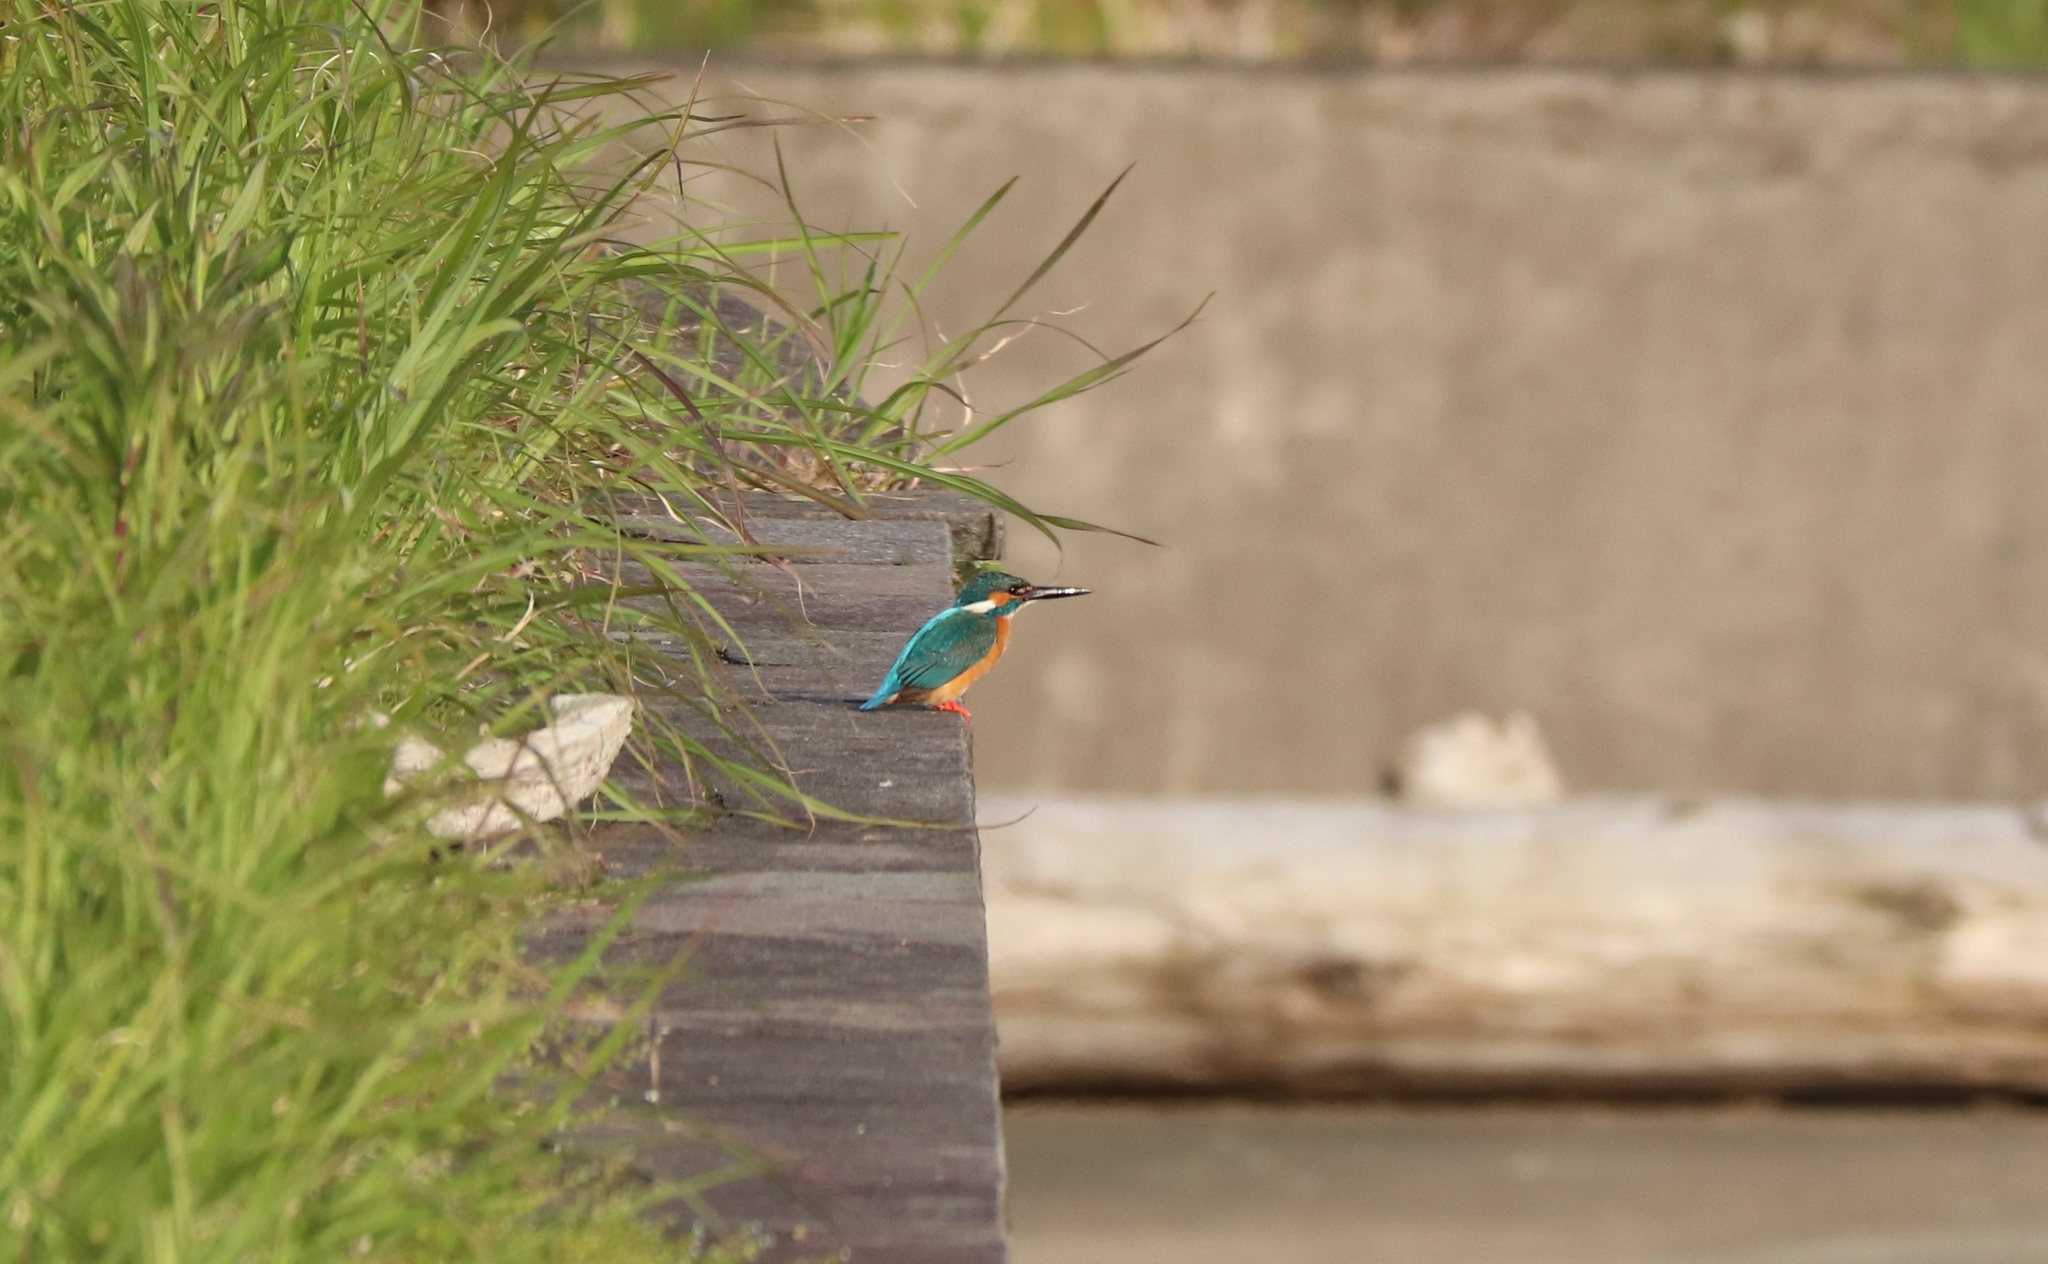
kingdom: Animalia
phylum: Chordata
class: Aves
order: Coraciiformes
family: Alcedinidae
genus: Alcedo
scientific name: Alcedo atthis
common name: Common kingfisher
